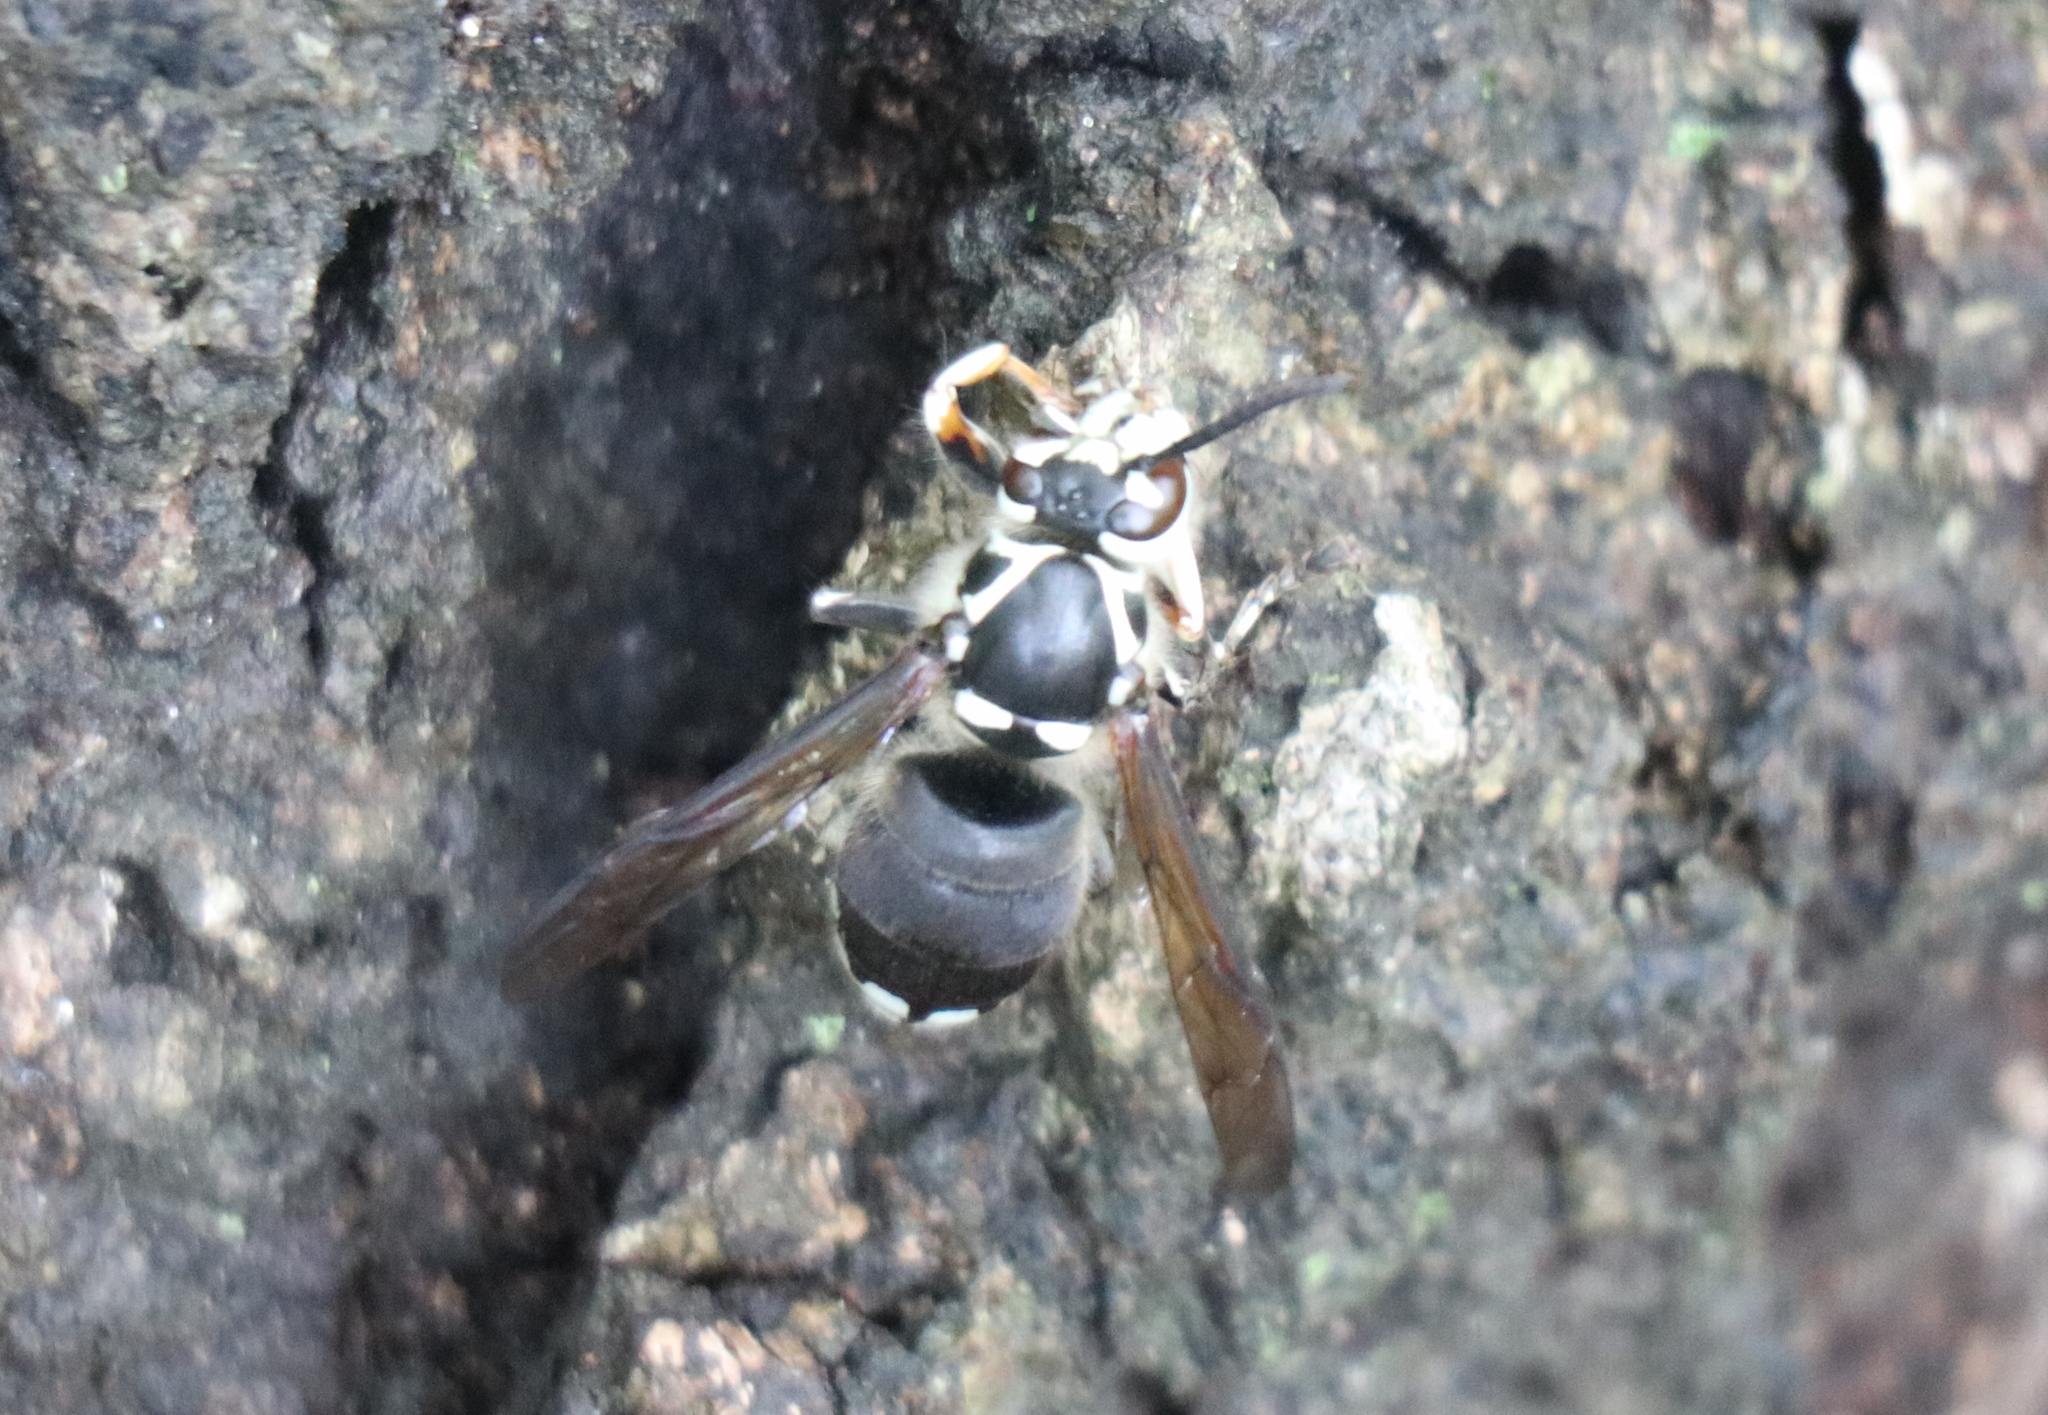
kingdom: Animalia
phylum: Arthropoda
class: Insecta
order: Hymenoptera
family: Vespidae
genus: Dolichovespula
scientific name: Dolichovespula maculata
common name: Bald-faced hornet
